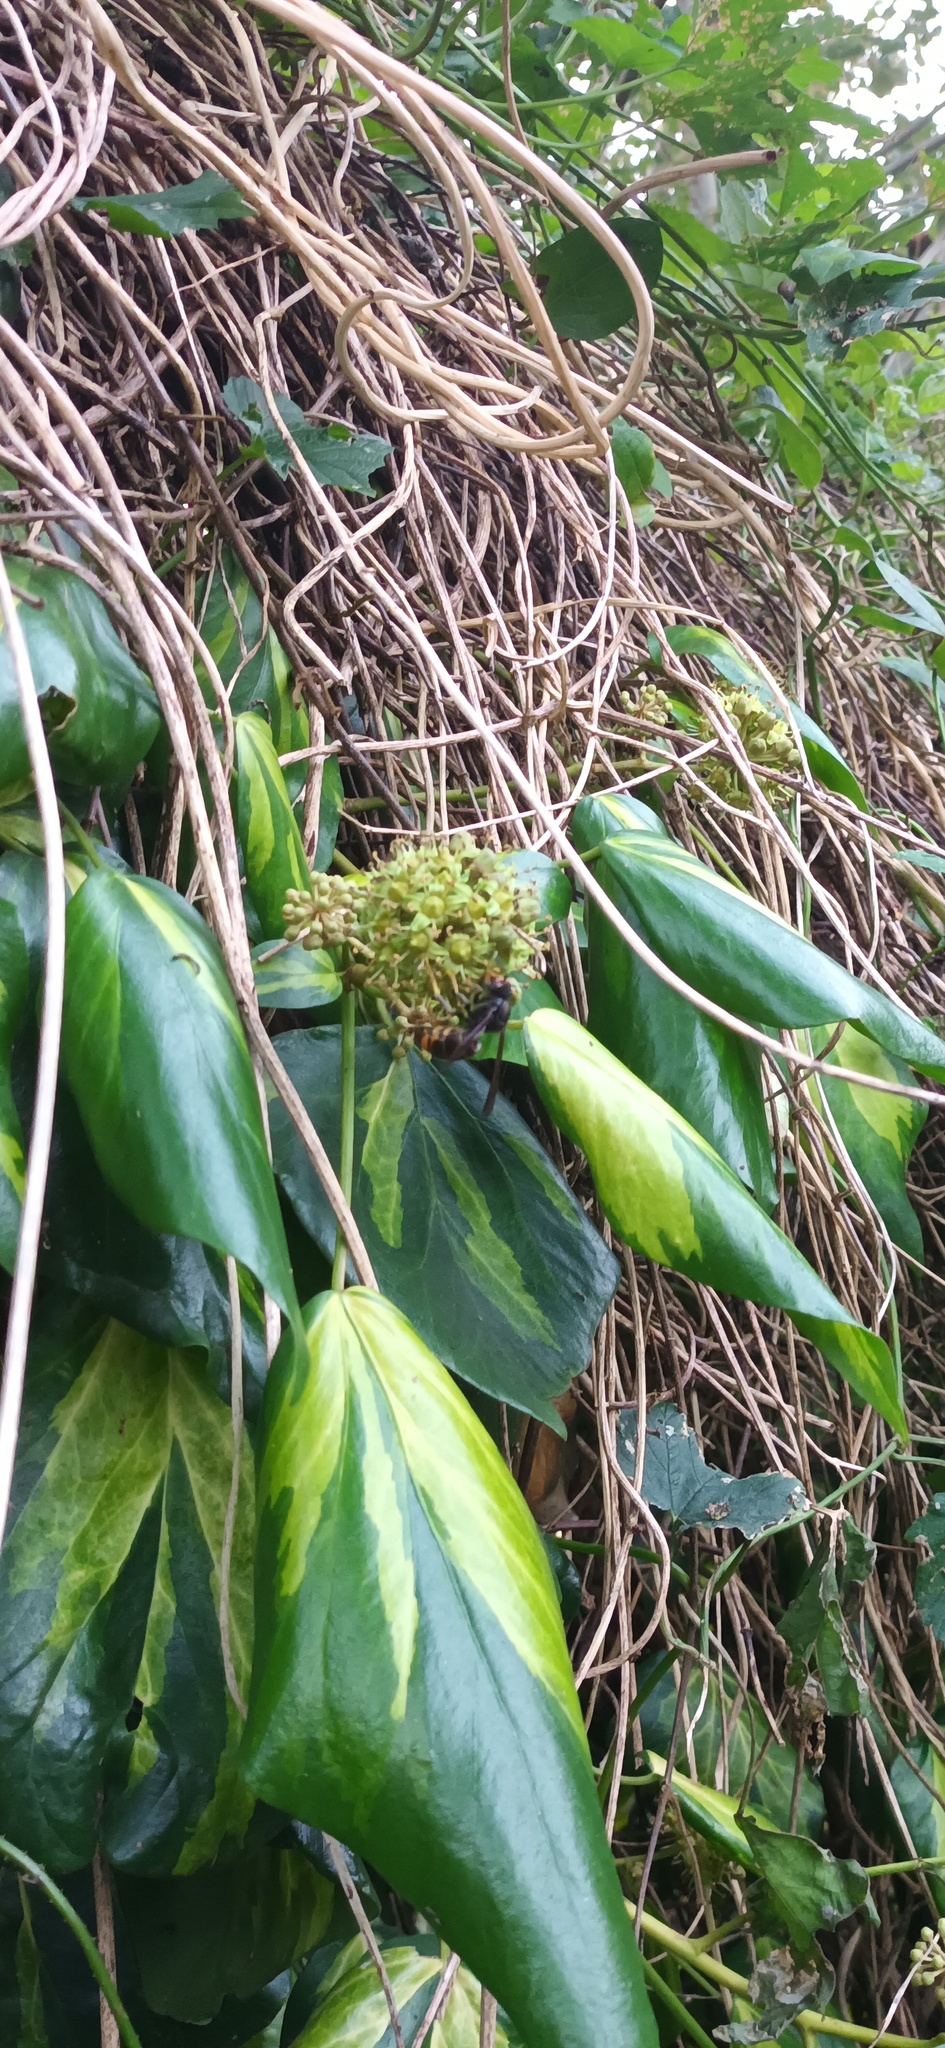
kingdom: Animalia
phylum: Arthropoda
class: Insecta
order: Hymenoptera
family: Vespidae
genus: Vespa
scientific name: Vespa velutina
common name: Asian hornet
